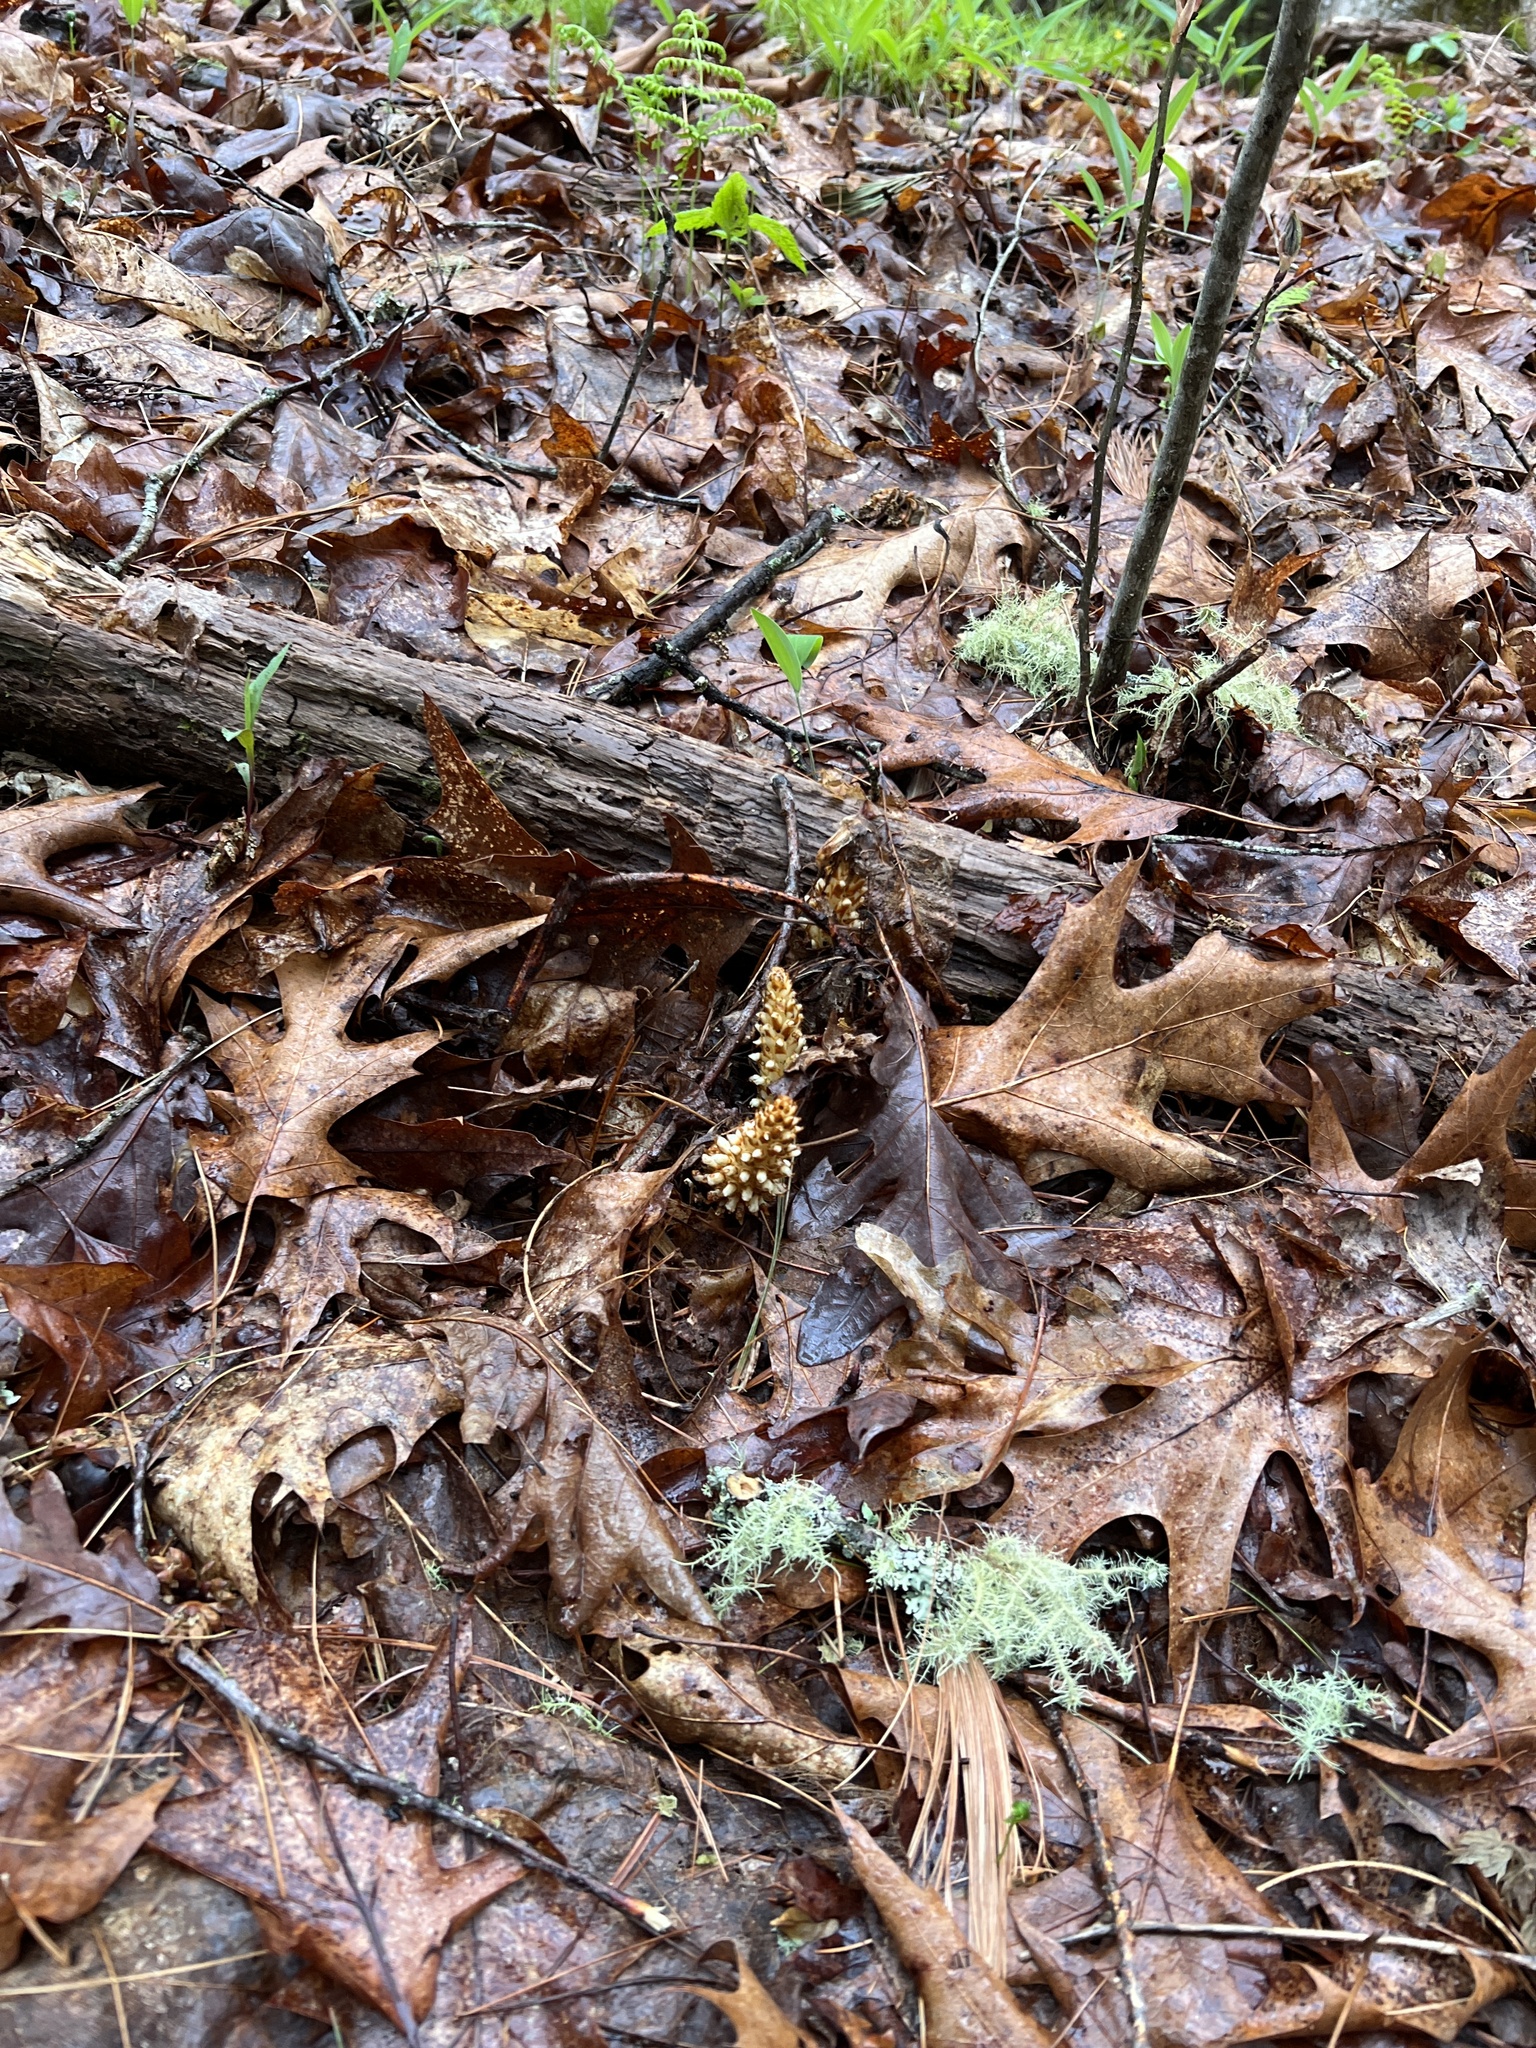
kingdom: Plantae
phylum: Tracheophyta
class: Magnoliopsida
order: Lamiales
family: Orobanchaceae
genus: Conopholis
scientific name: Conopholis americana
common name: American cancer-root
